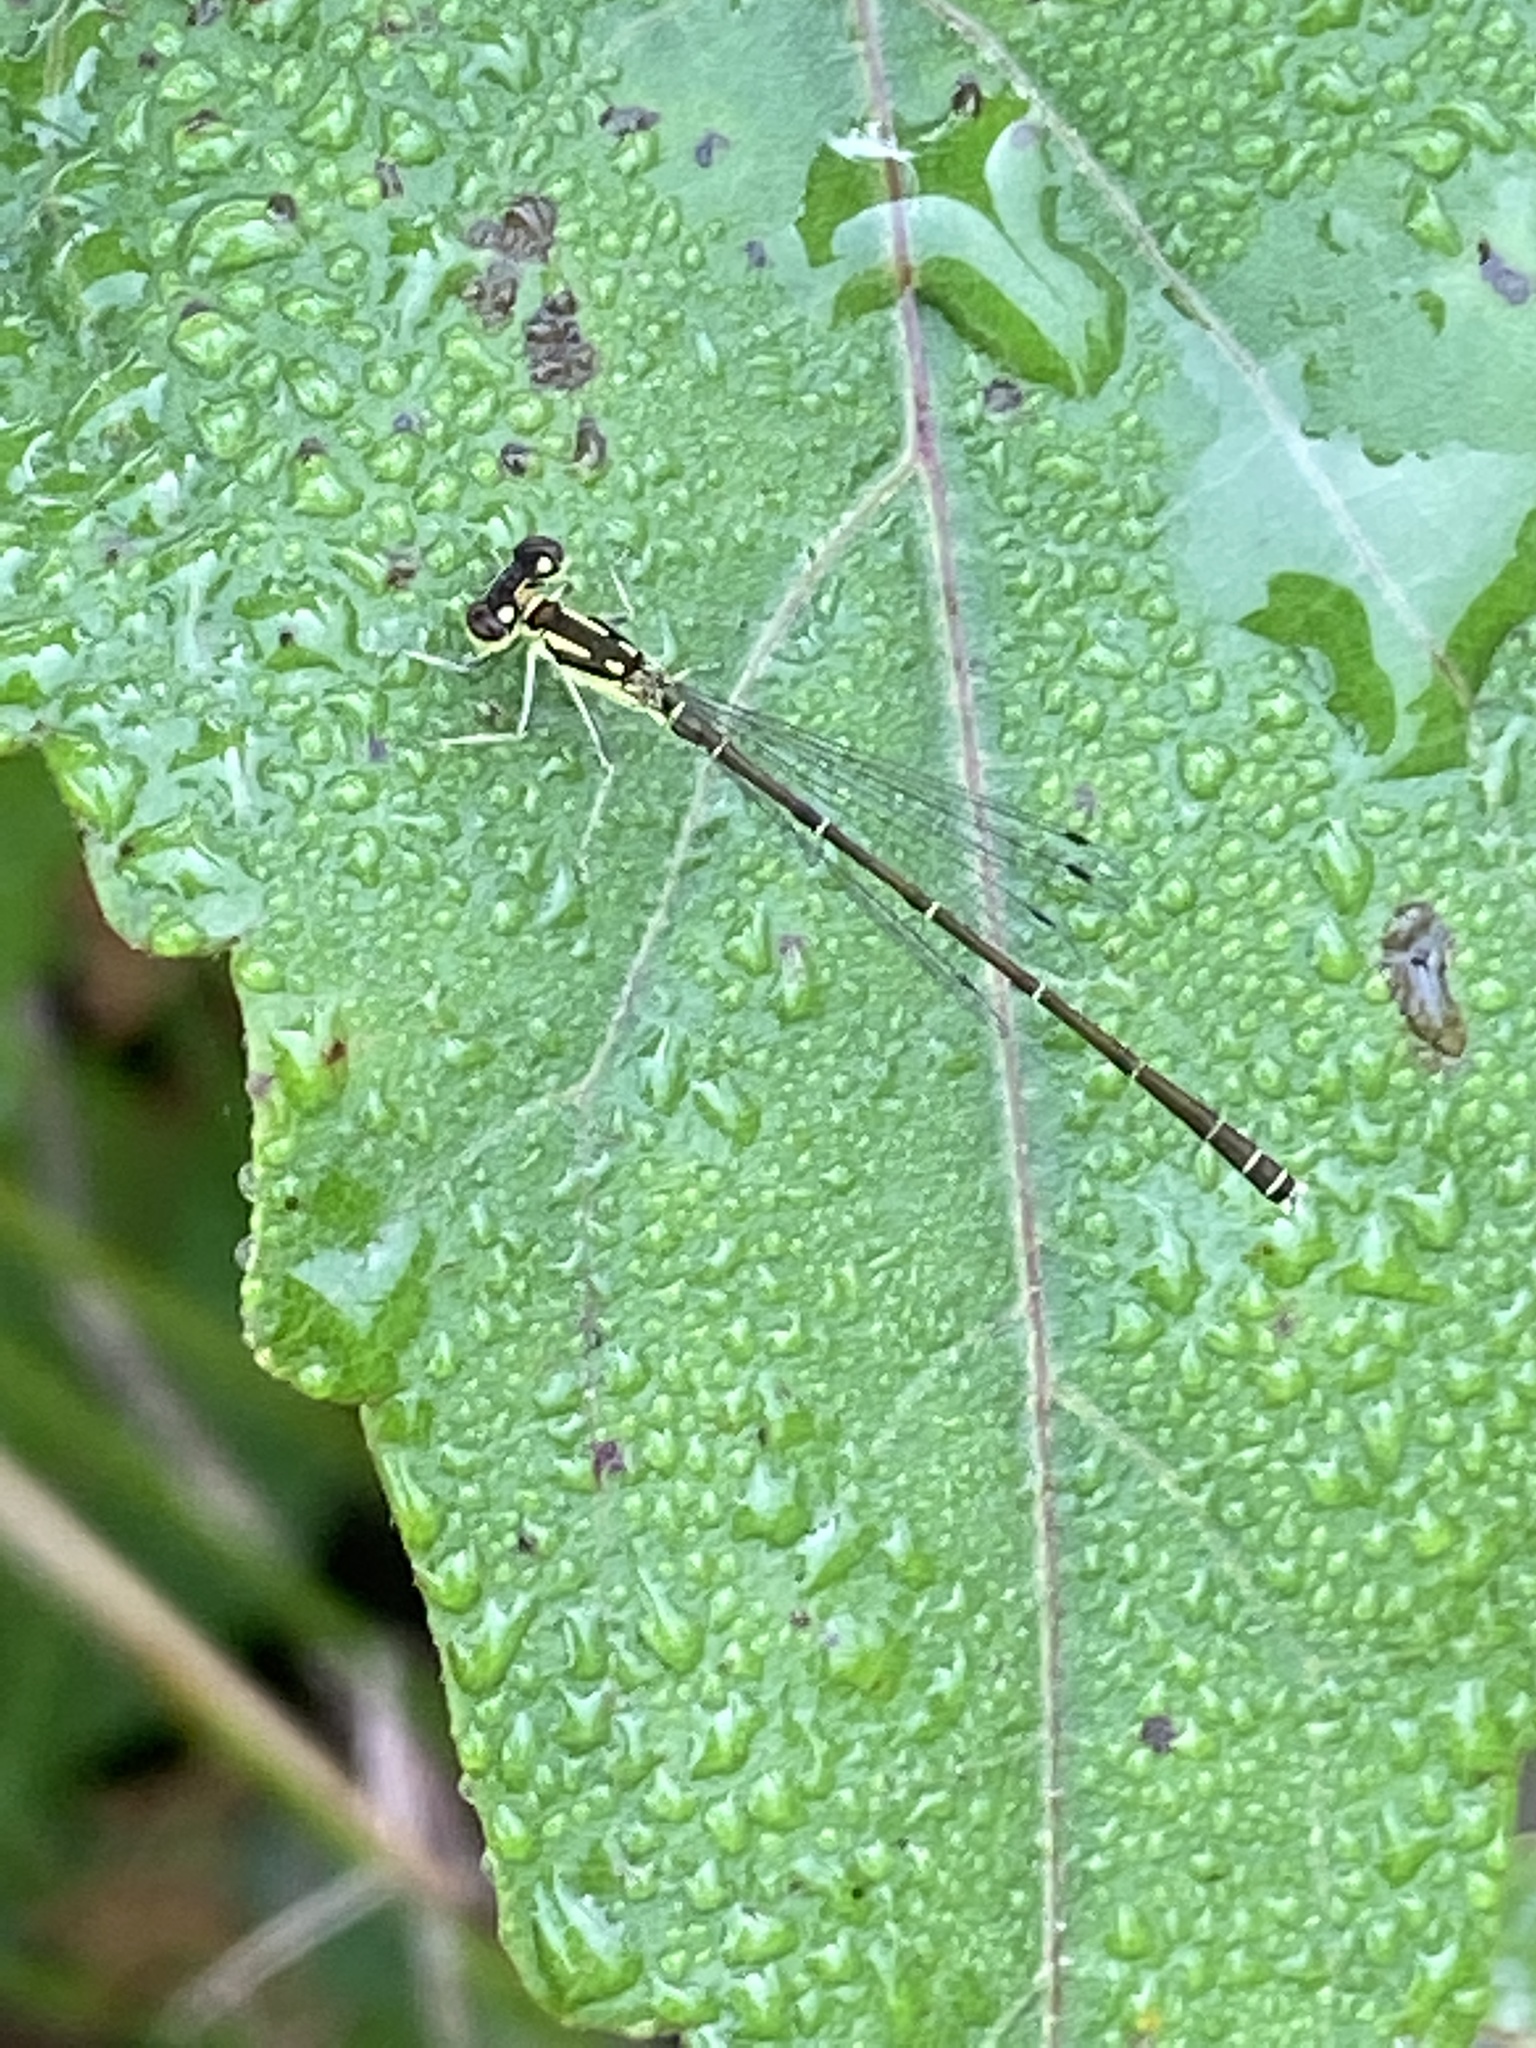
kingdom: Animalia
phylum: Arthropoda
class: Insecta
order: Odonata
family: Coenagrionidae
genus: Ischnura
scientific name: Ischnura posita
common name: Fragile forktail
